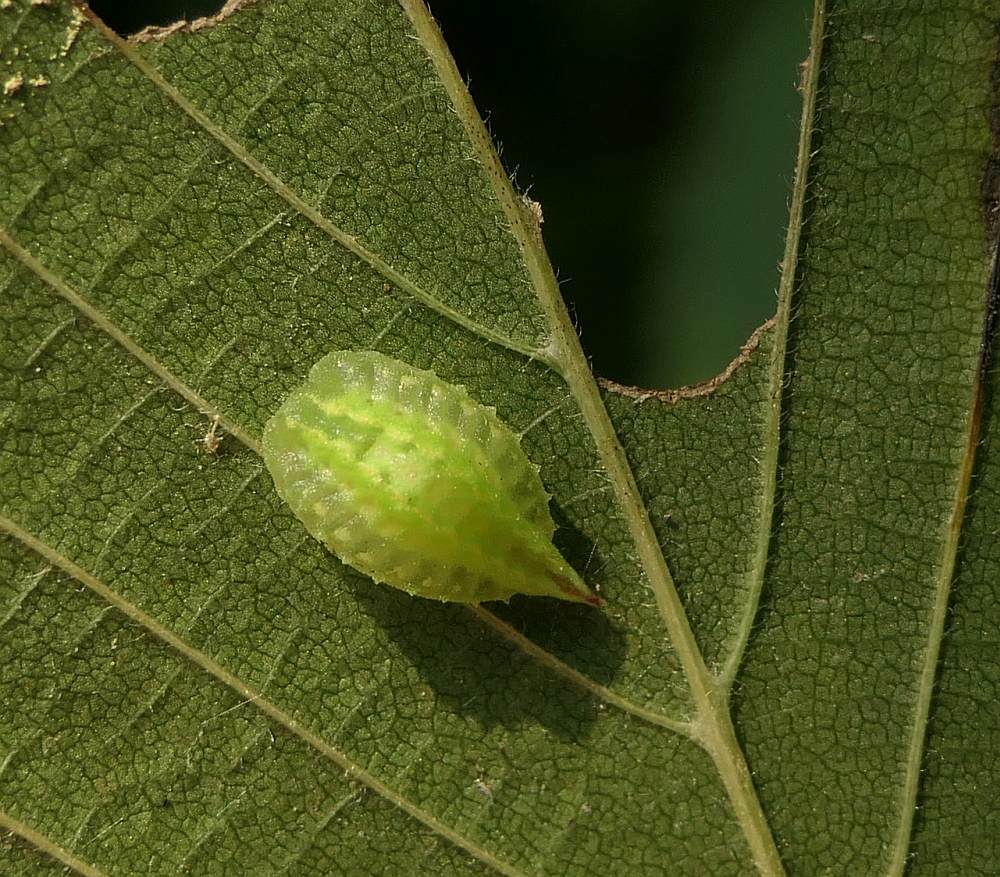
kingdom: Animalia
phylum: Arthropoda
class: Insecta
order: Lepidoptera
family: Limacodidae
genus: Packardia
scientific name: Packardia elegans
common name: Elegant tailed slug moth
